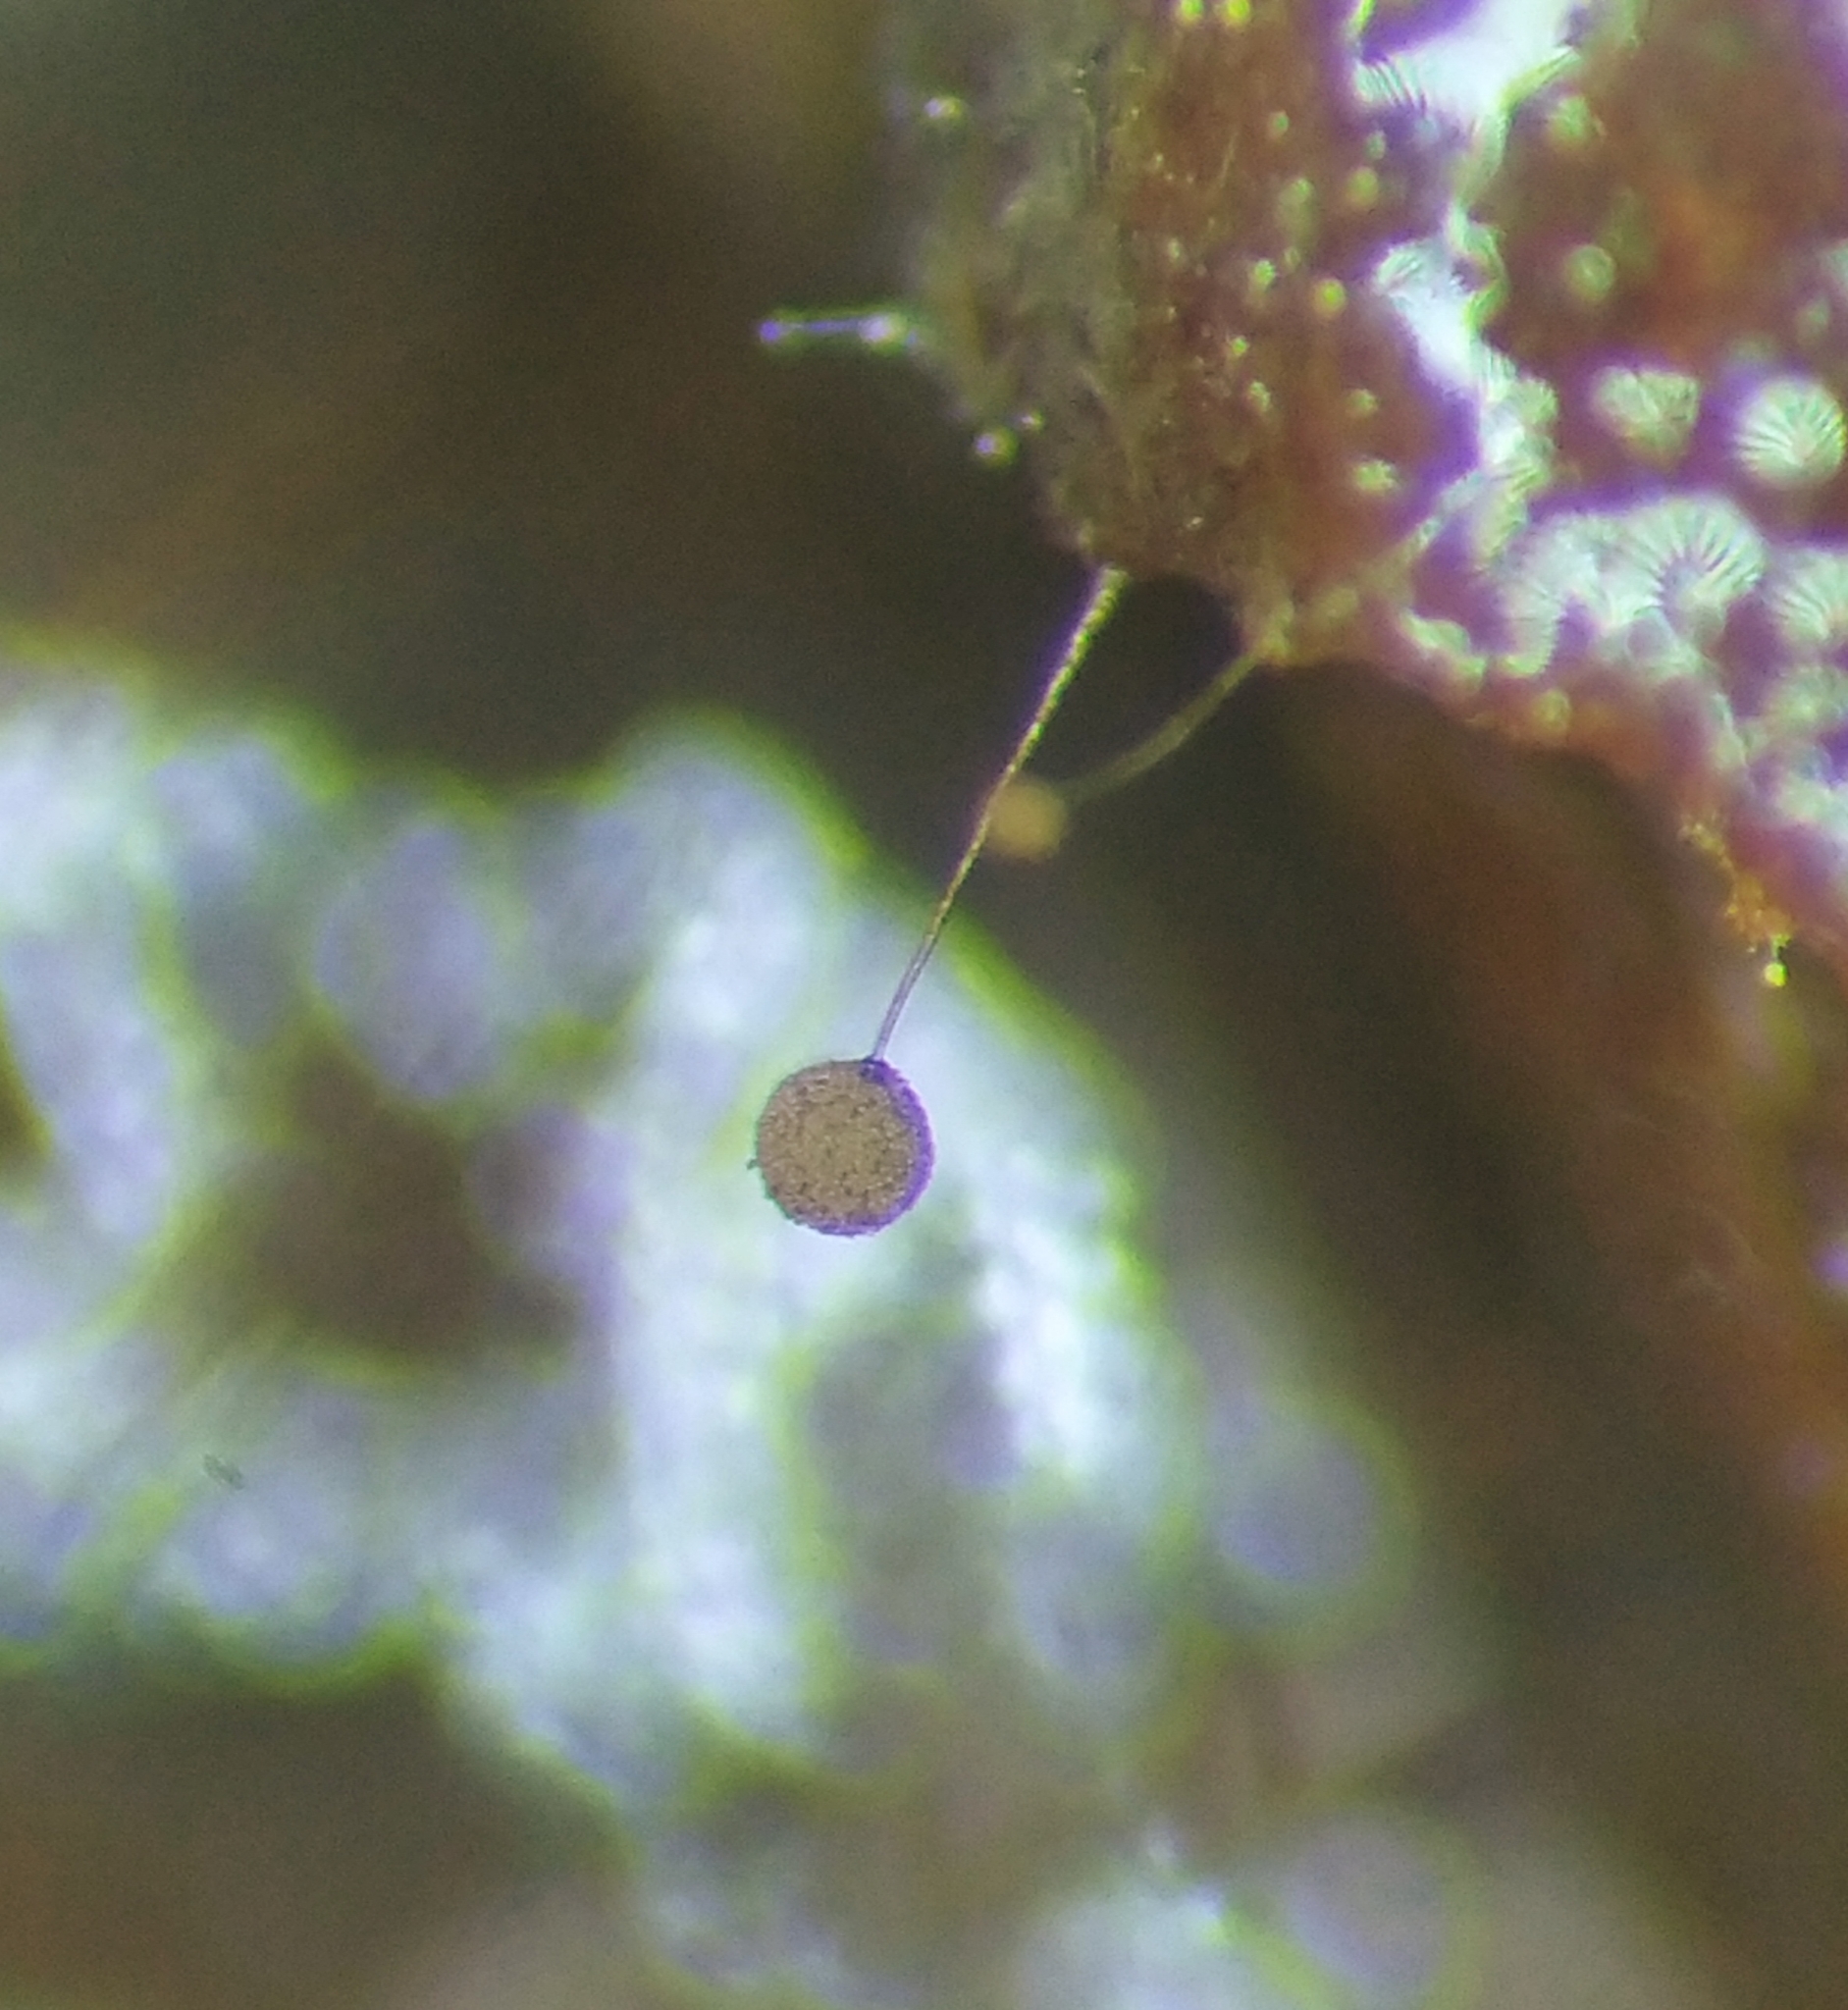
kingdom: Protozoa
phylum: Mycetozoa
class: Myxomycetes
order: Stemonitidales
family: Stemonitidaceae
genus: Macbrideola
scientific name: Macbrideola cornea
